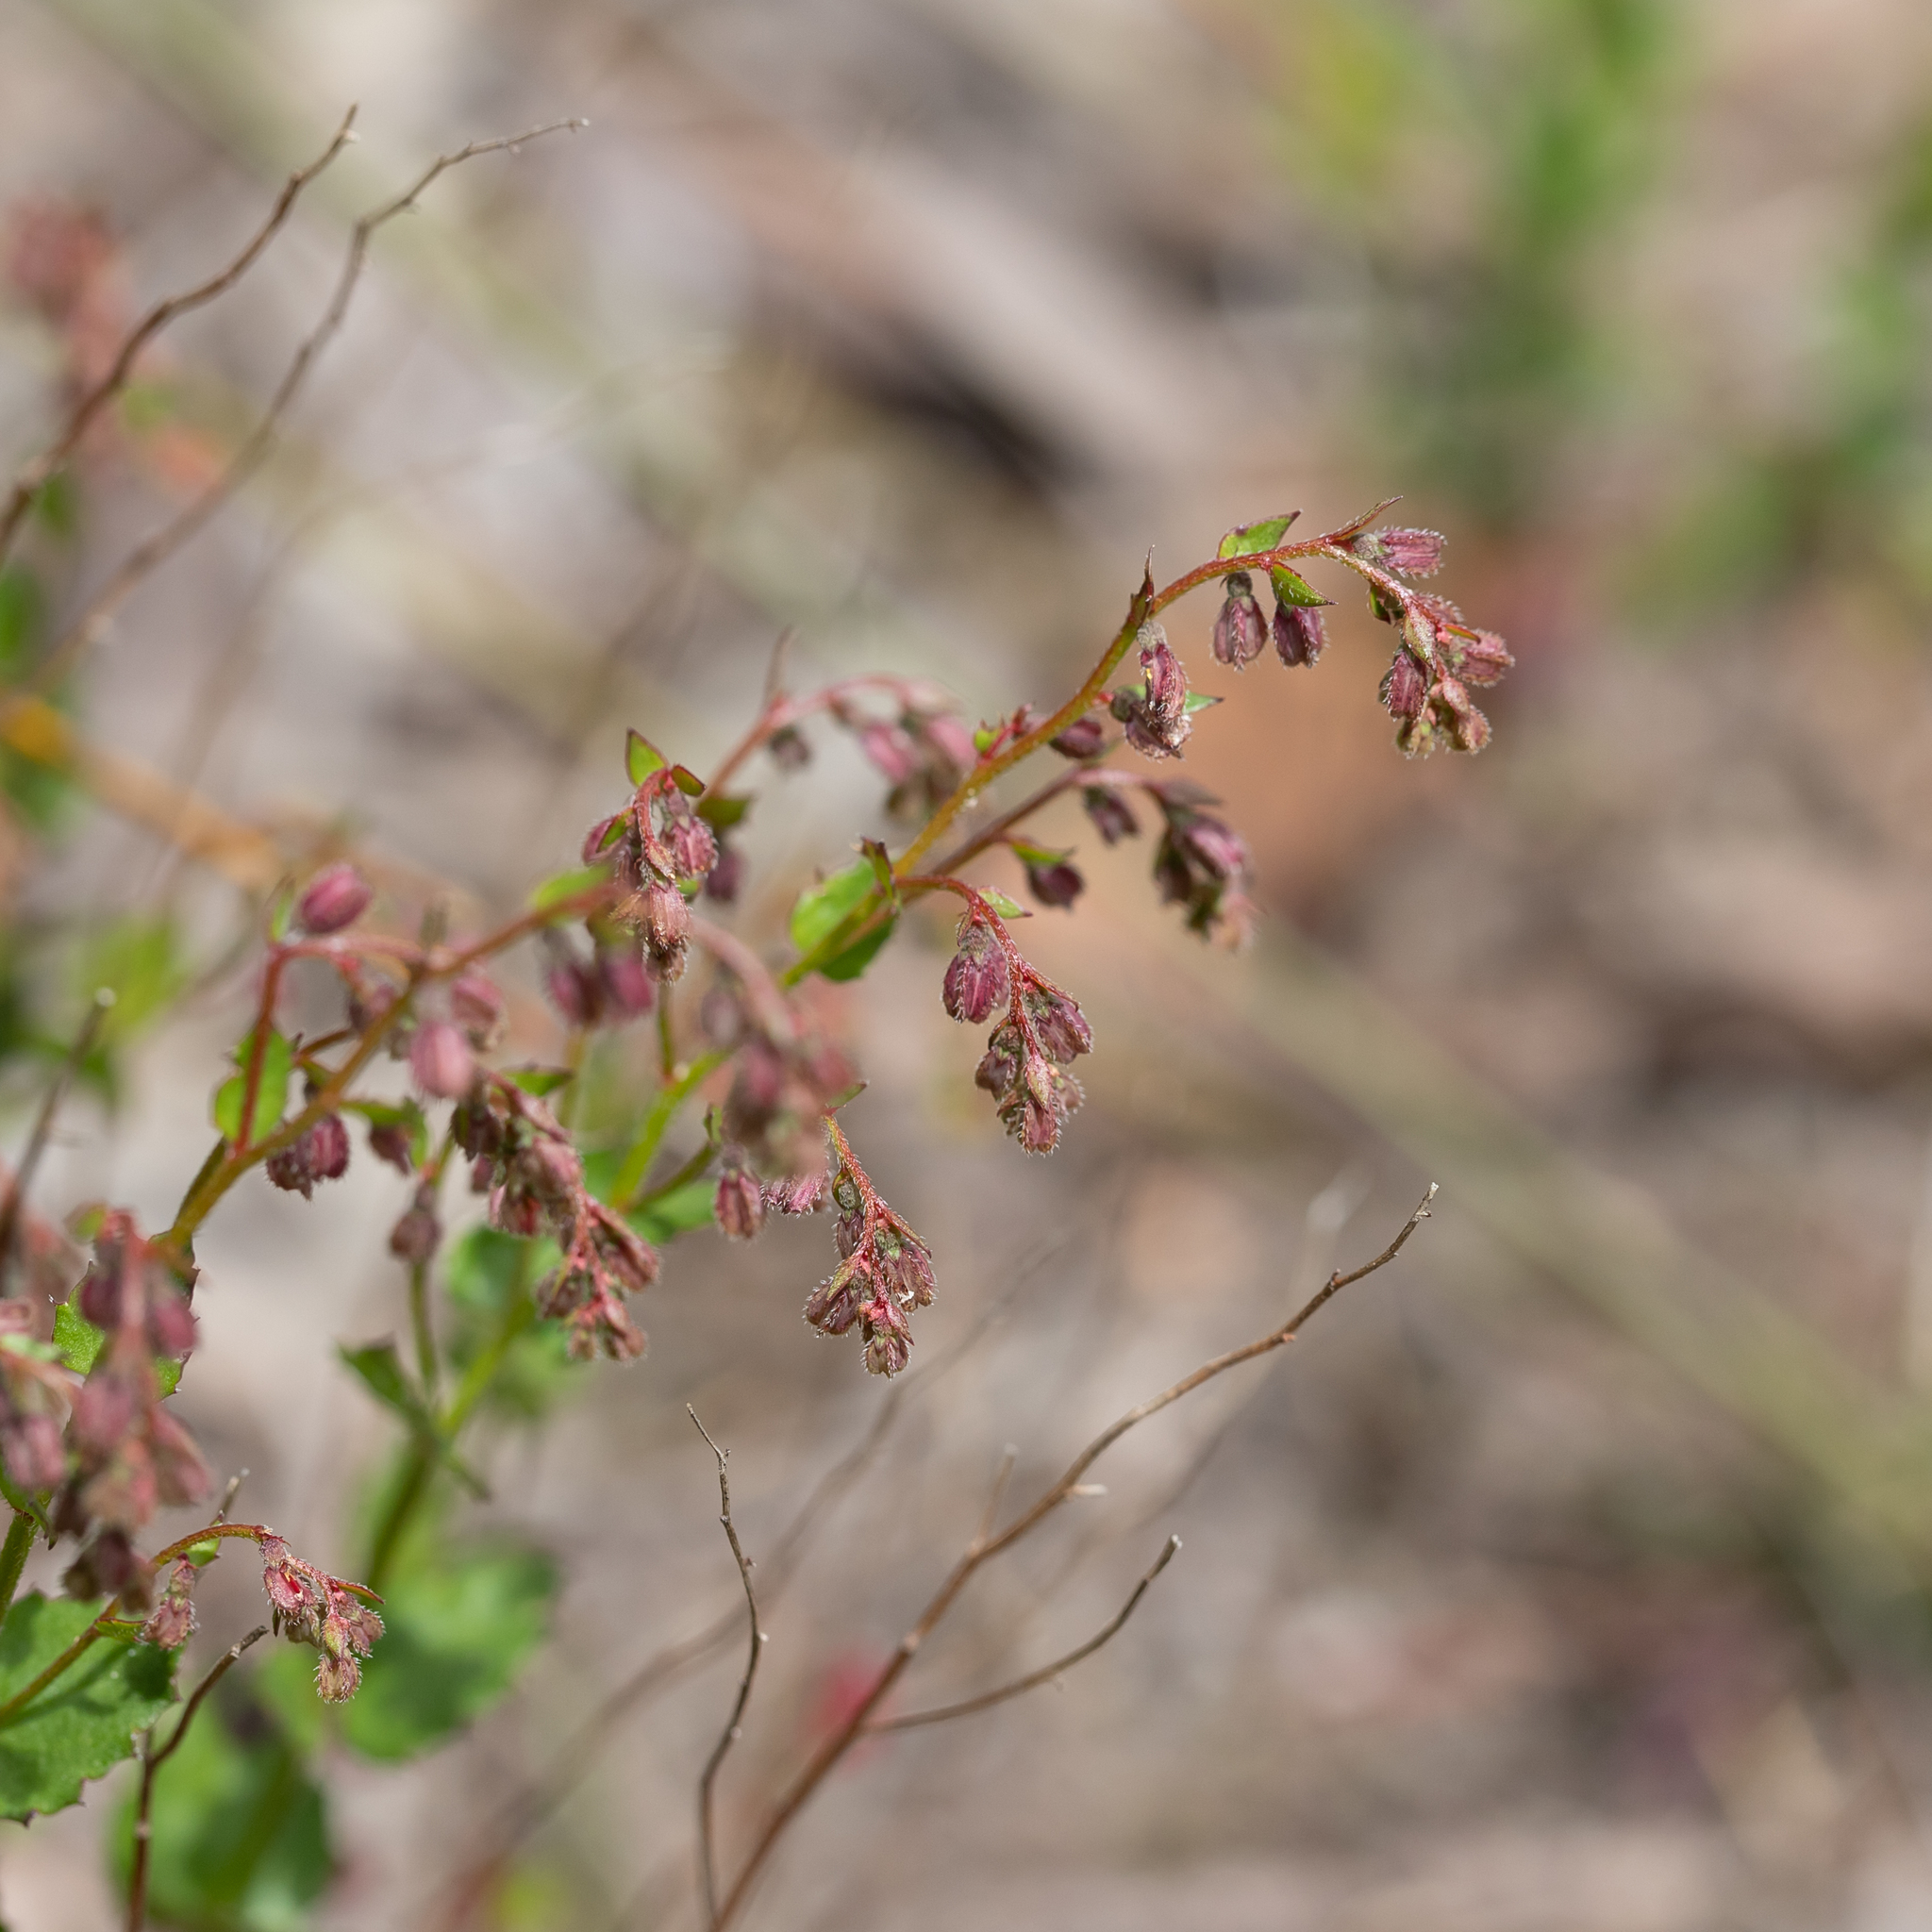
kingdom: Plantae
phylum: Tracheophyta
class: Magnoliopsida
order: Saxifragales
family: Haloragaceae
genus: Gonocarpus
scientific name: Gonocarpus tetragynus
